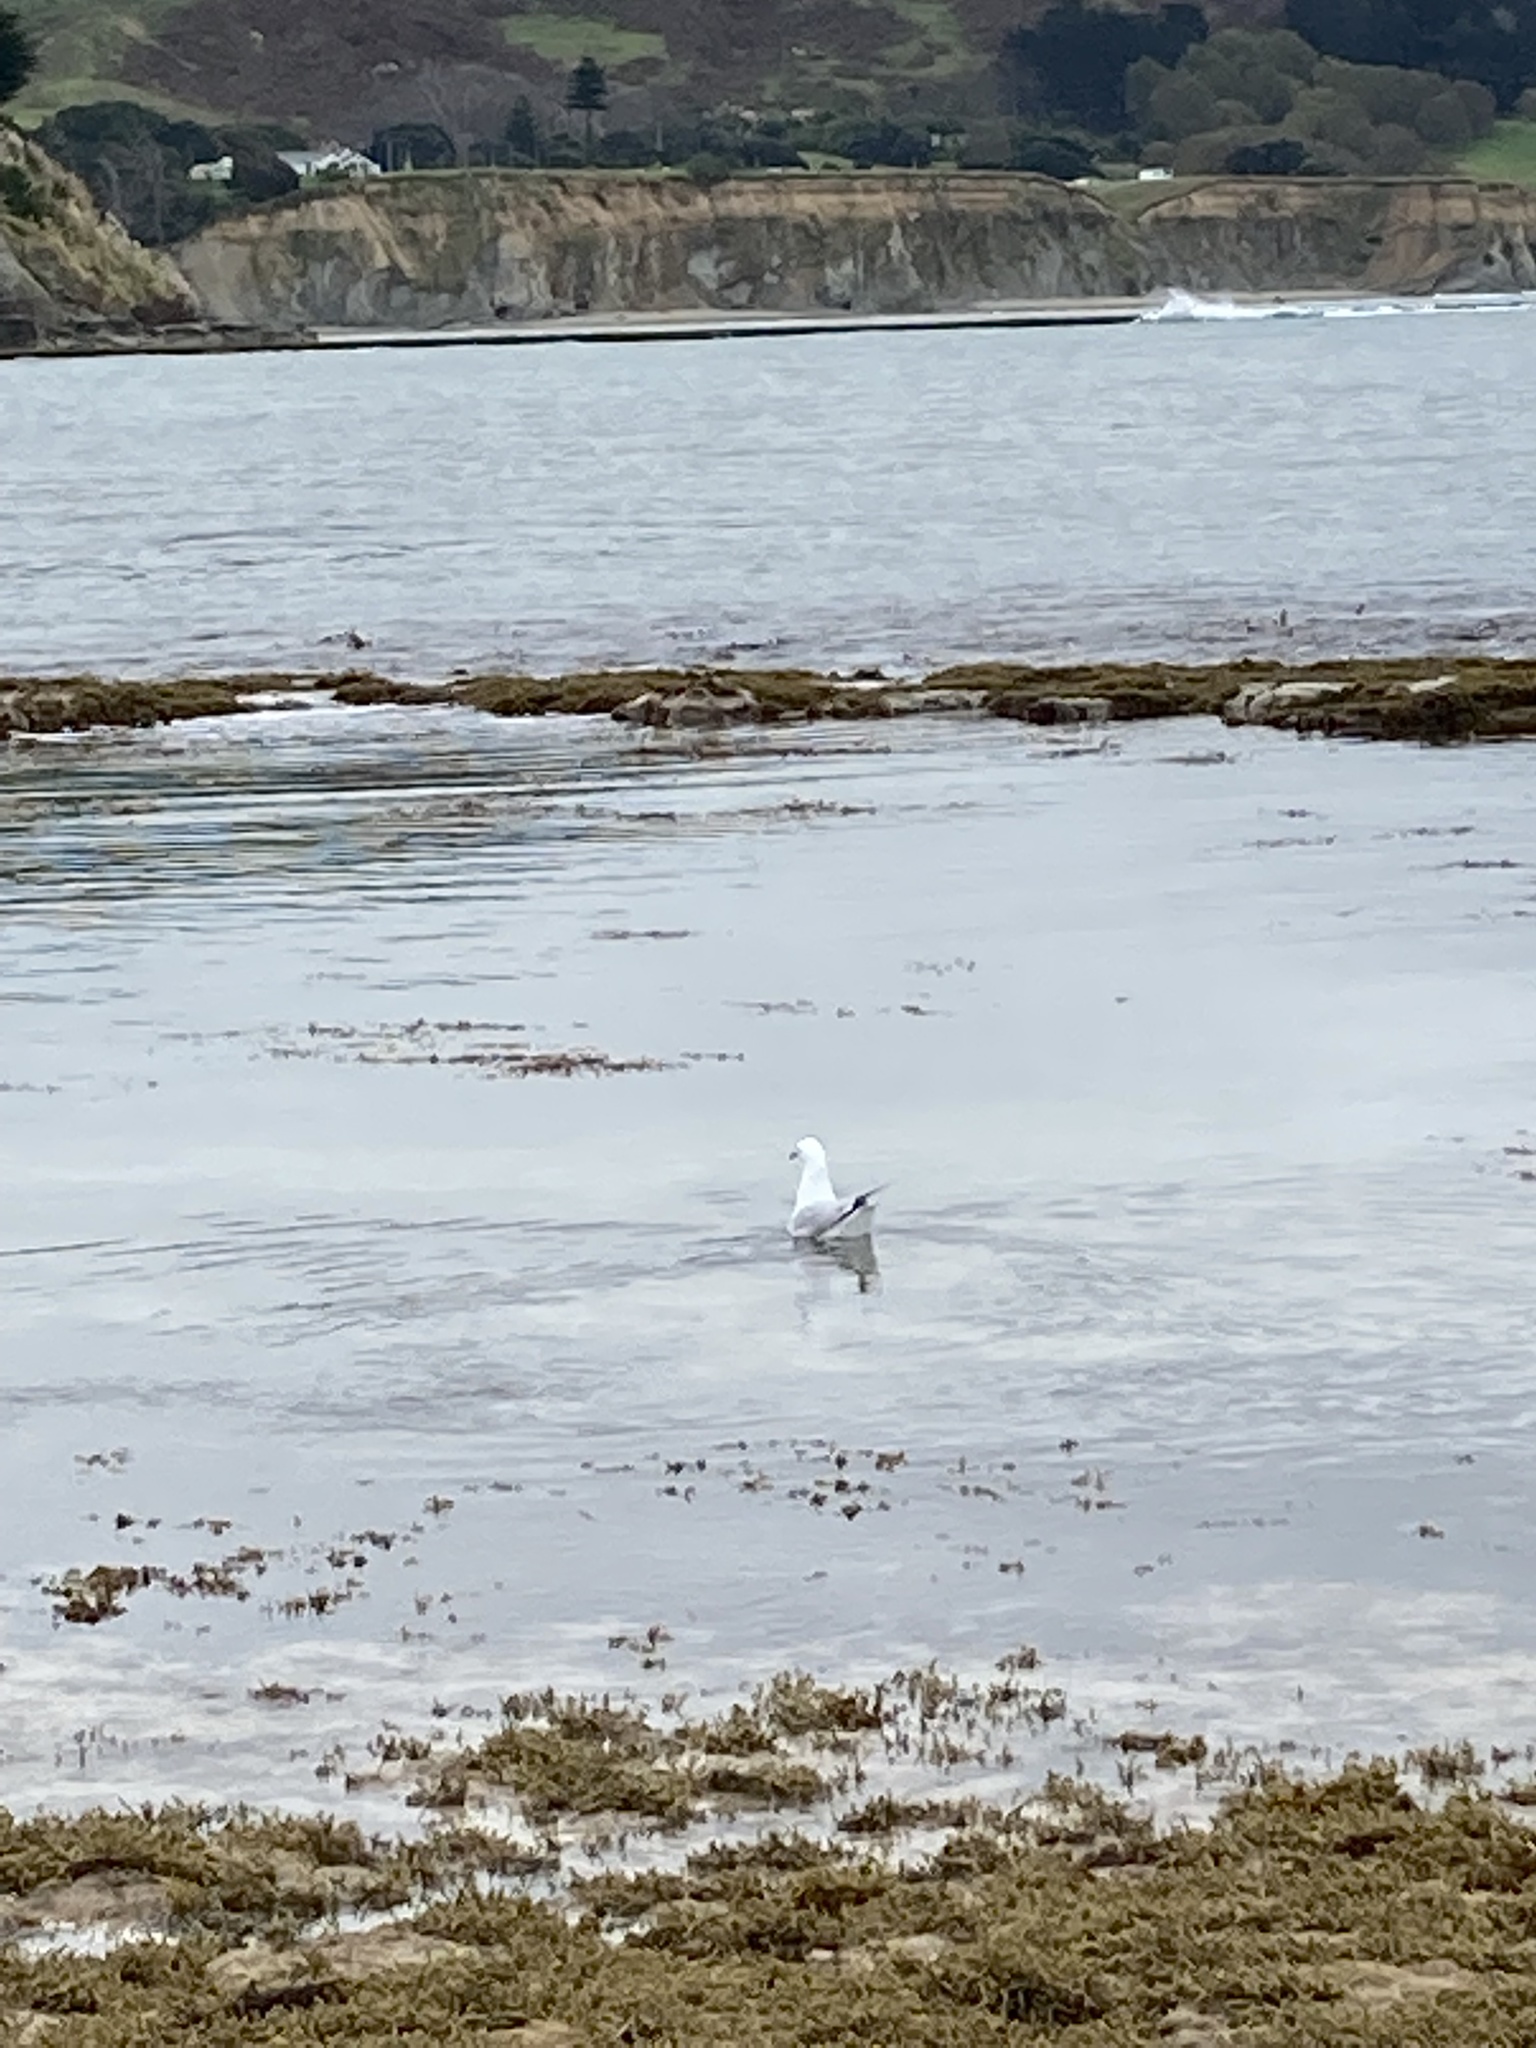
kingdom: Animalia
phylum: Chordata
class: Aves
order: Charadriiformes
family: Laridae
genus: Chroicocephalus
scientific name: Chroicocephalus bulleri
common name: Black-billed gull
